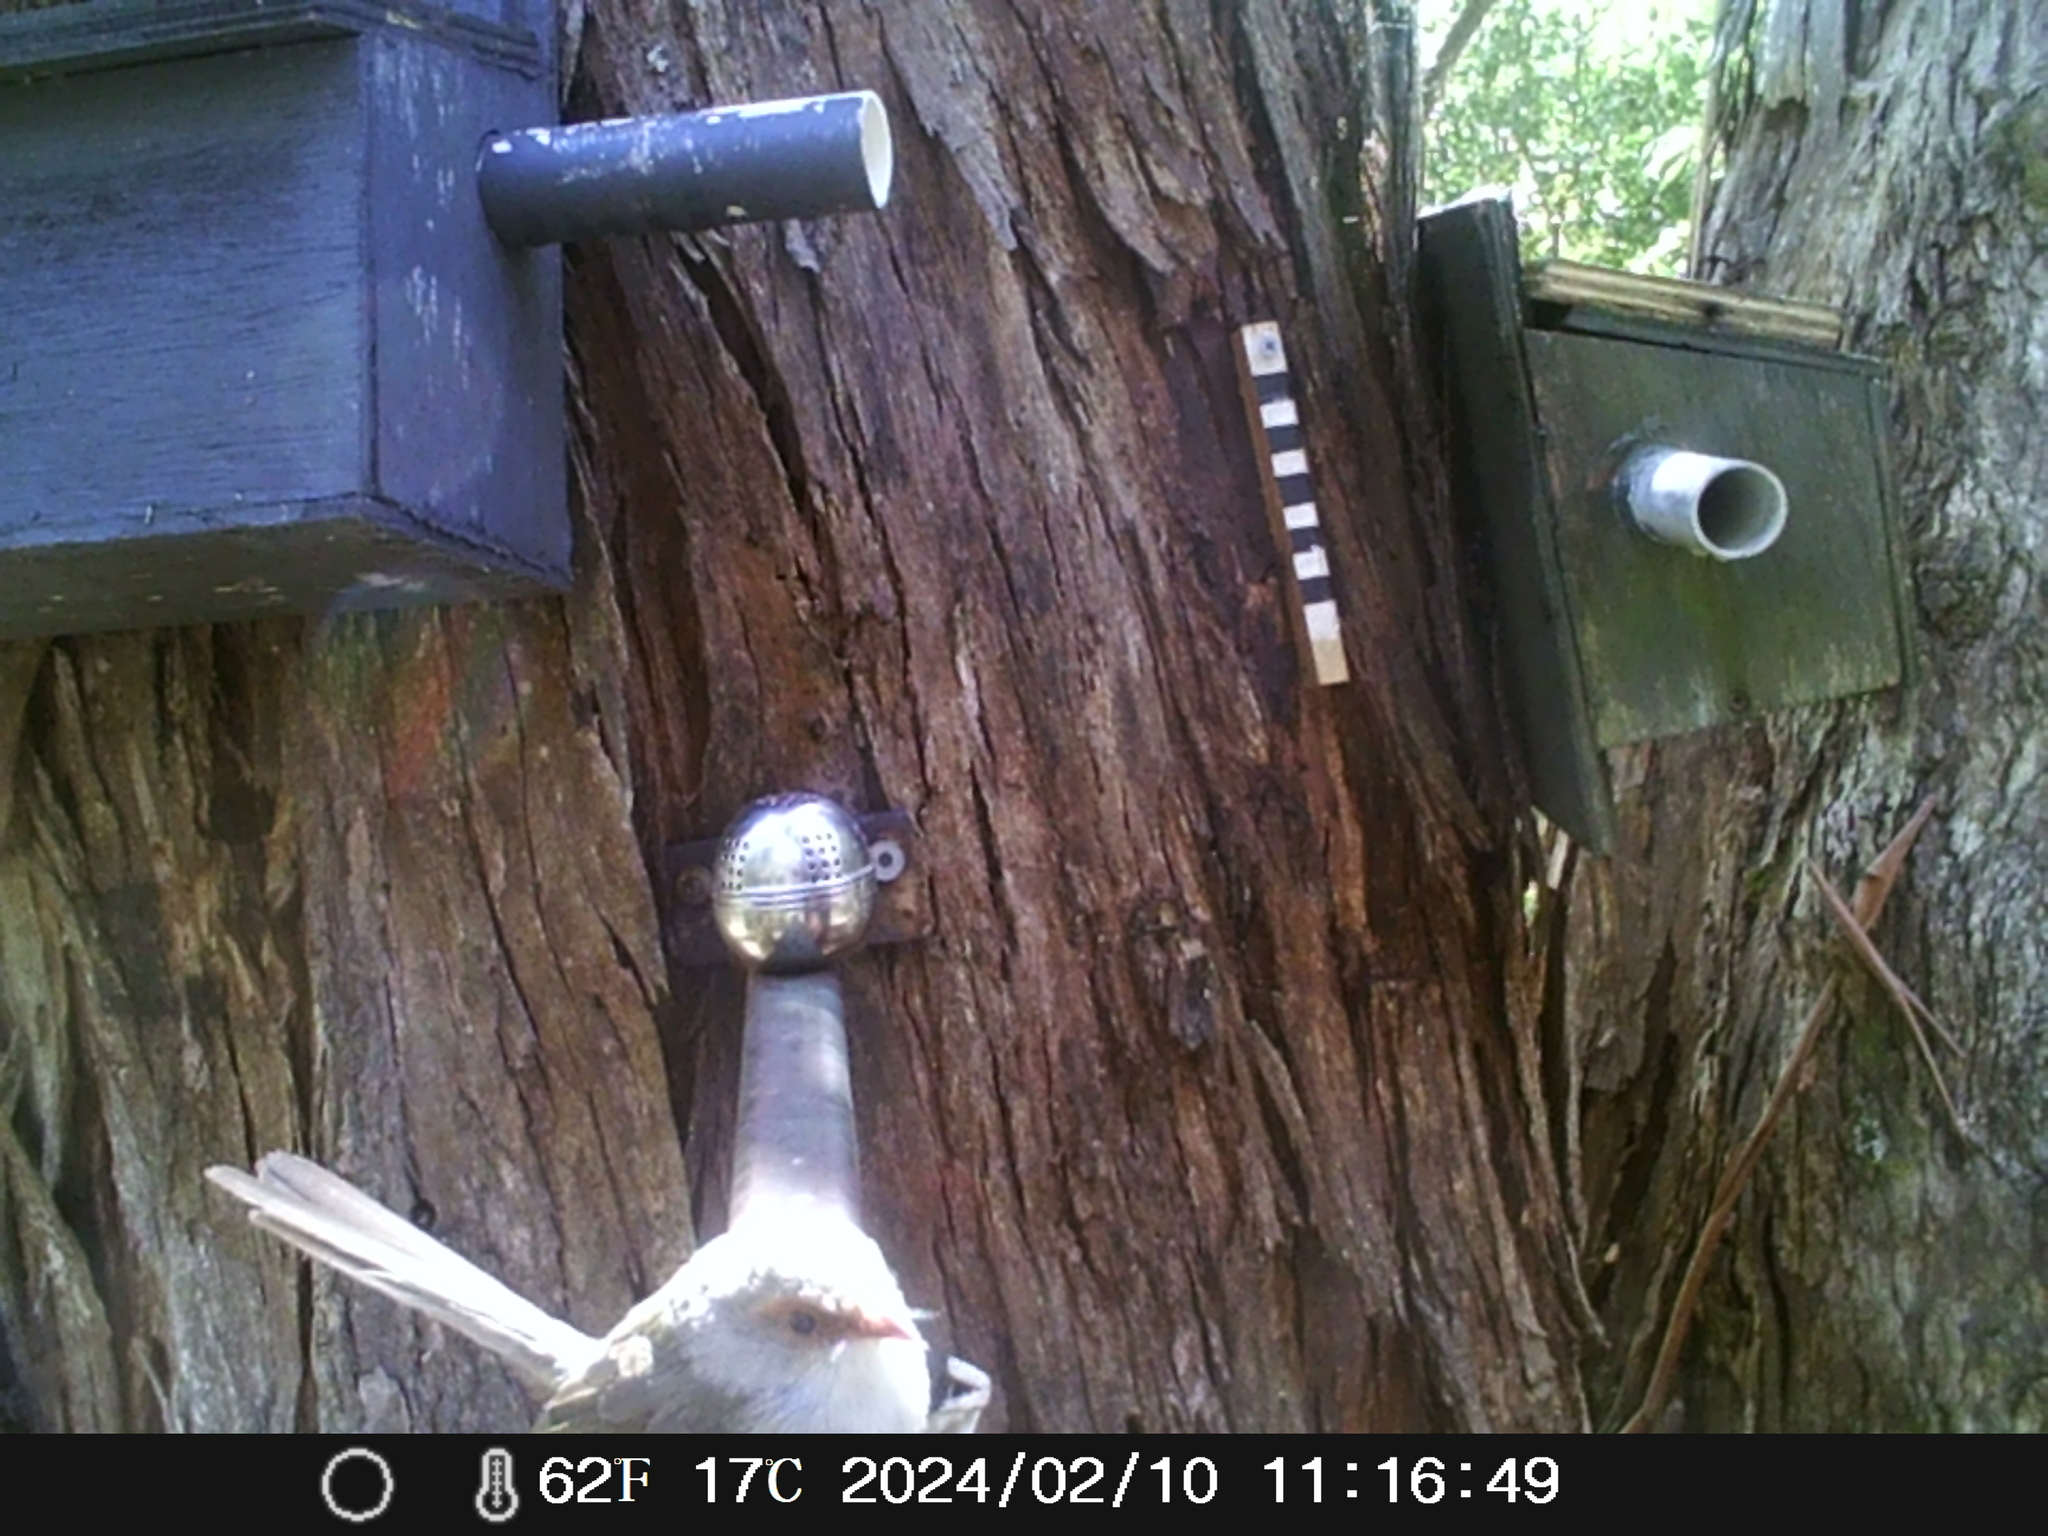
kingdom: Animalia
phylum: Chordata
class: Aves
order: Passeriformes
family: Maluridae
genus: Malurus
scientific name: Malurus cyaneus
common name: Superb fairywren
